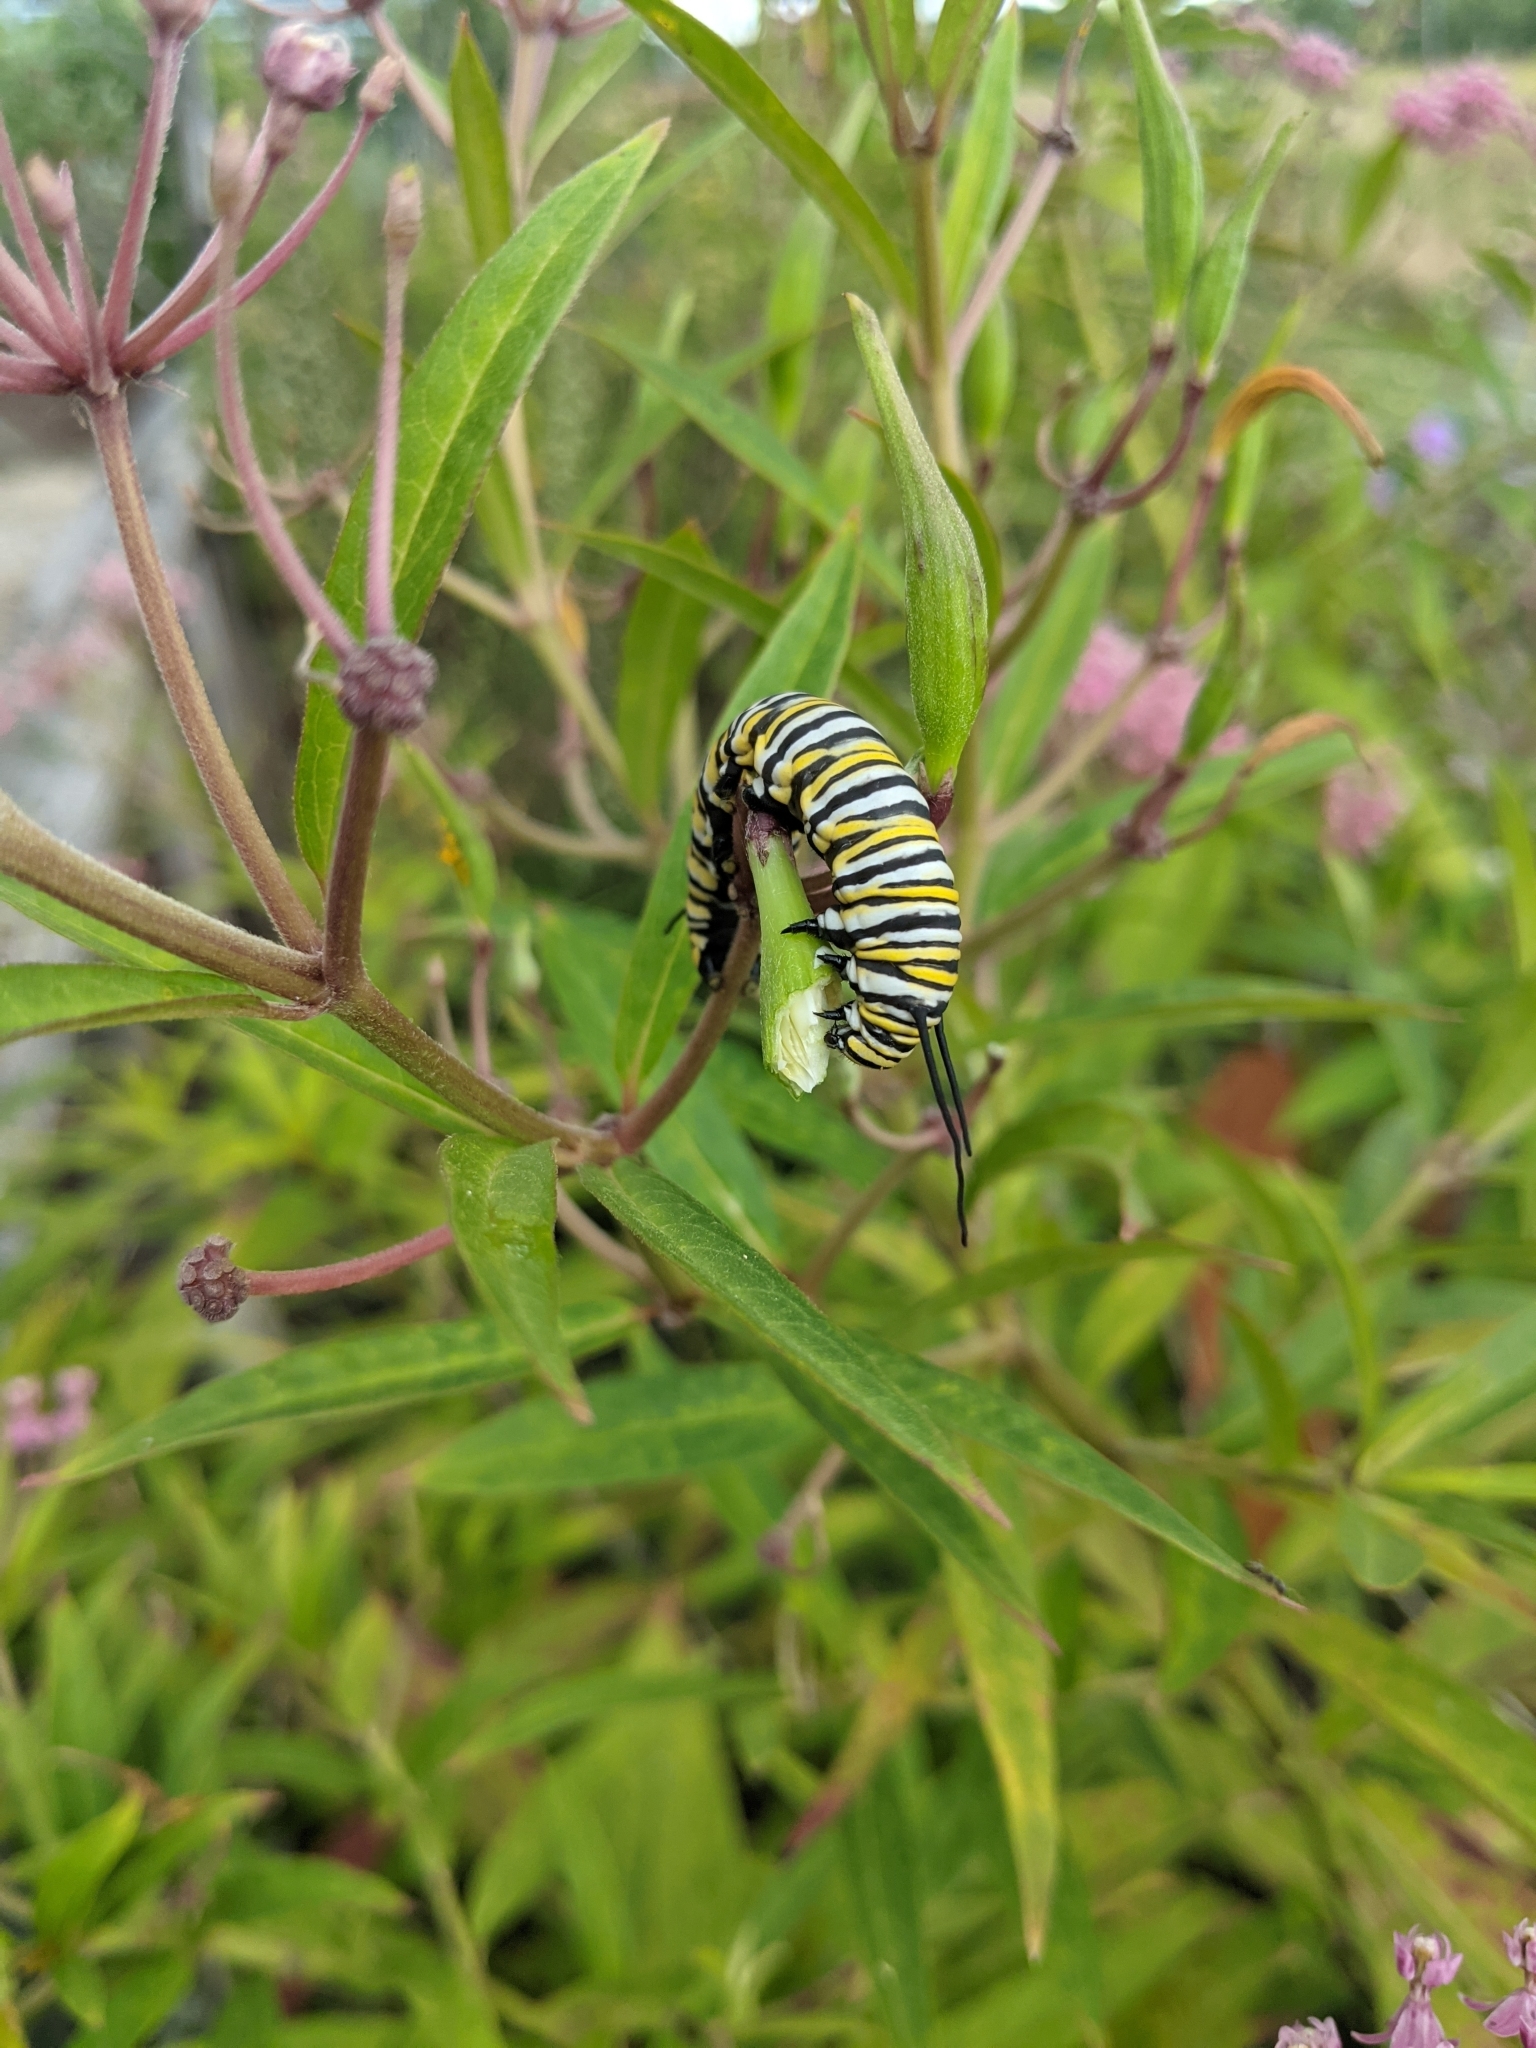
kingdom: Animalia
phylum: Arthropoda
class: Insecta
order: Lepidoptera
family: Nymphalidae
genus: Danaus
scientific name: Danaus plexippus
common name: Monarch
